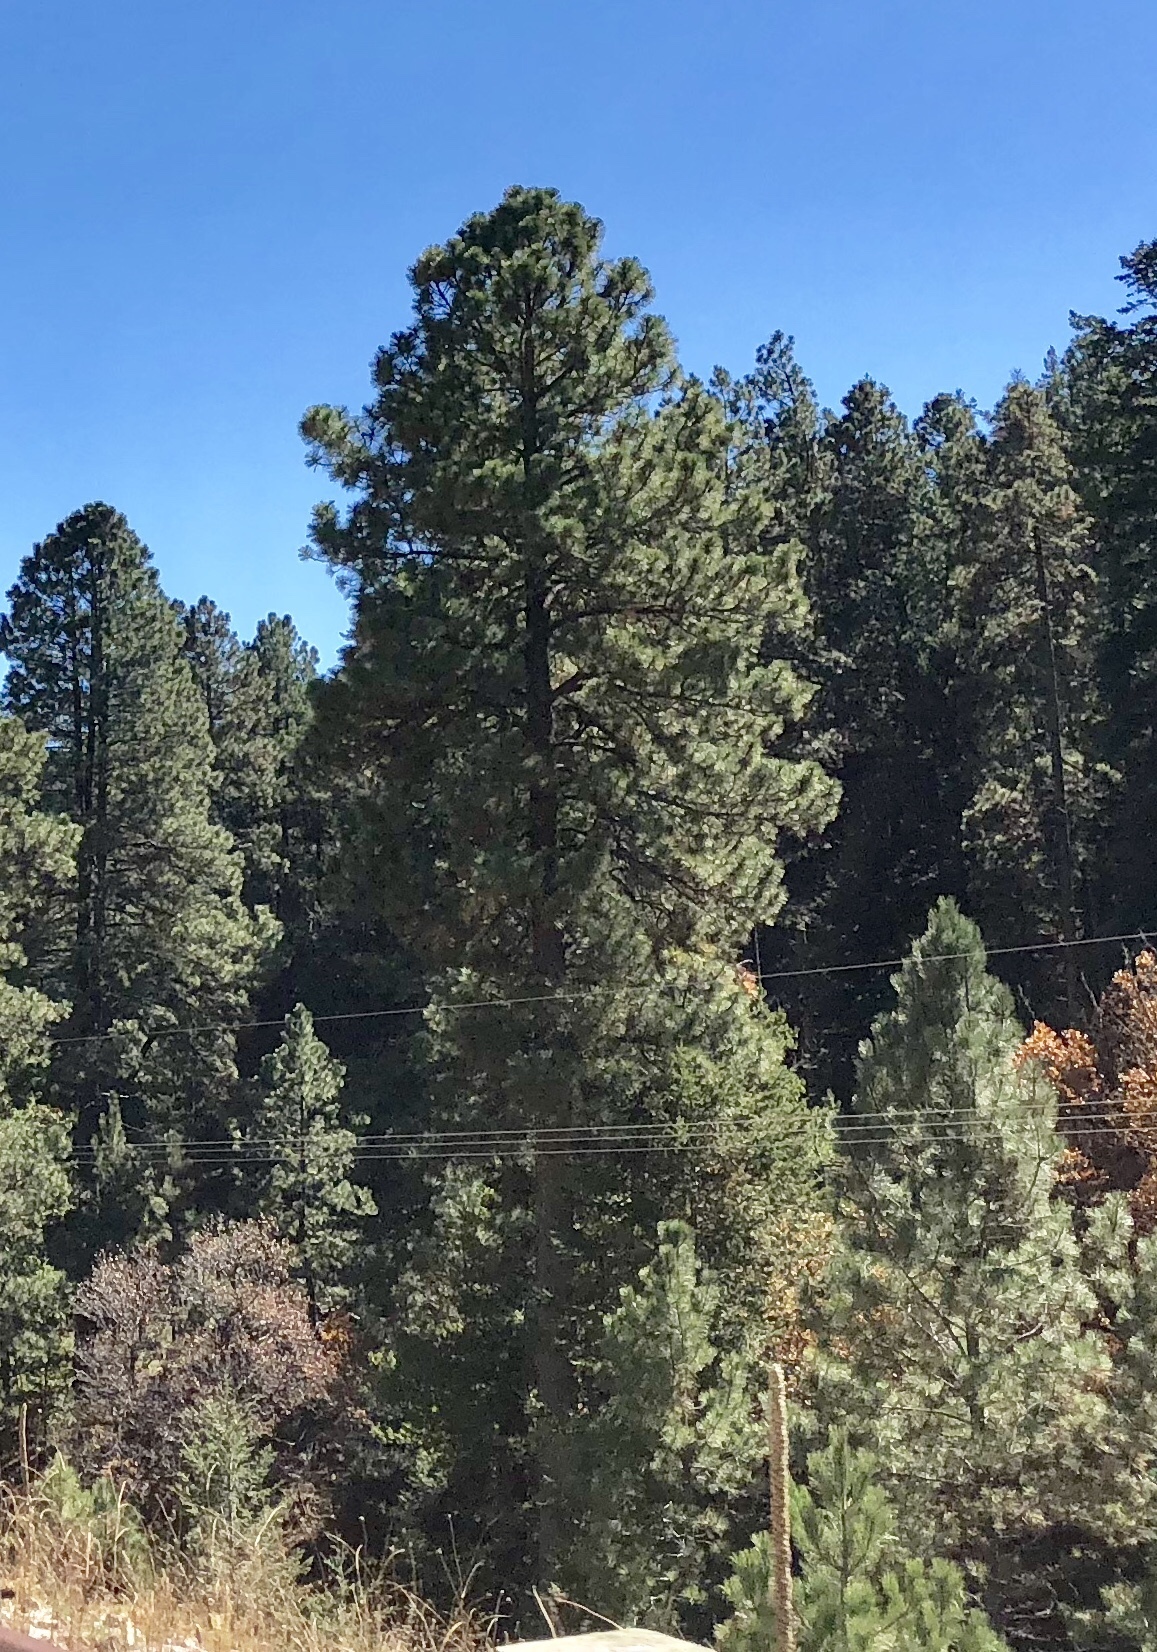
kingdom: Plantae
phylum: Tracheophyta
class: Pinopsida
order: Pinales
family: Pinaceae
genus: Pinus
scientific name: Pinus ponderosa
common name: Western yellow-pine
